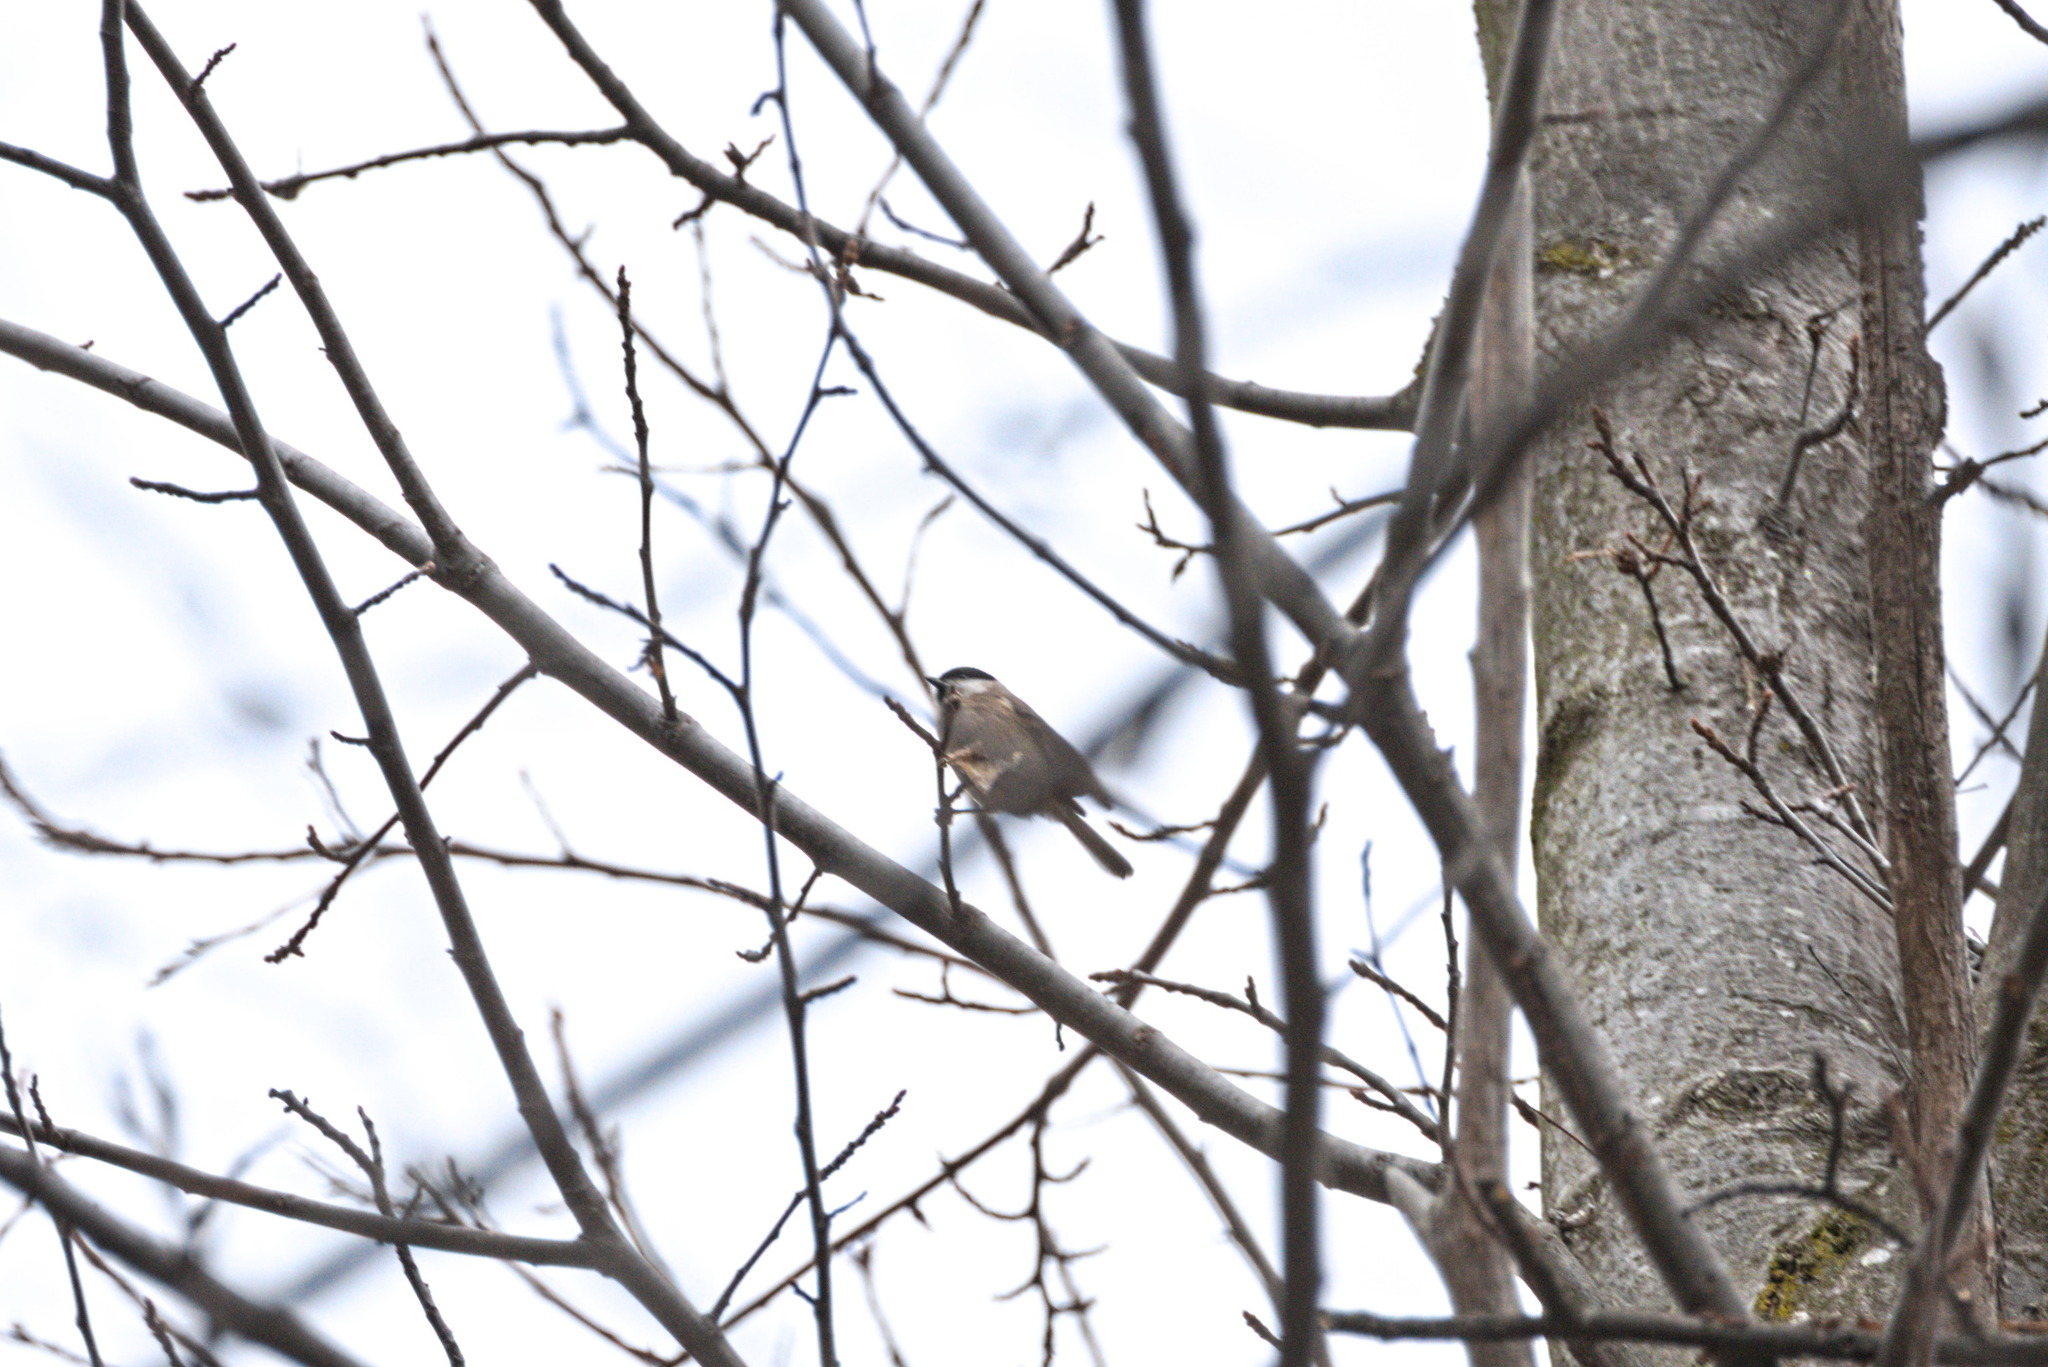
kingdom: Animalia
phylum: Chordata
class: Aves
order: Passeriformes
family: Paridae
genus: Poecile
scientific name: Poecile palustris
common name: Marsh tit
